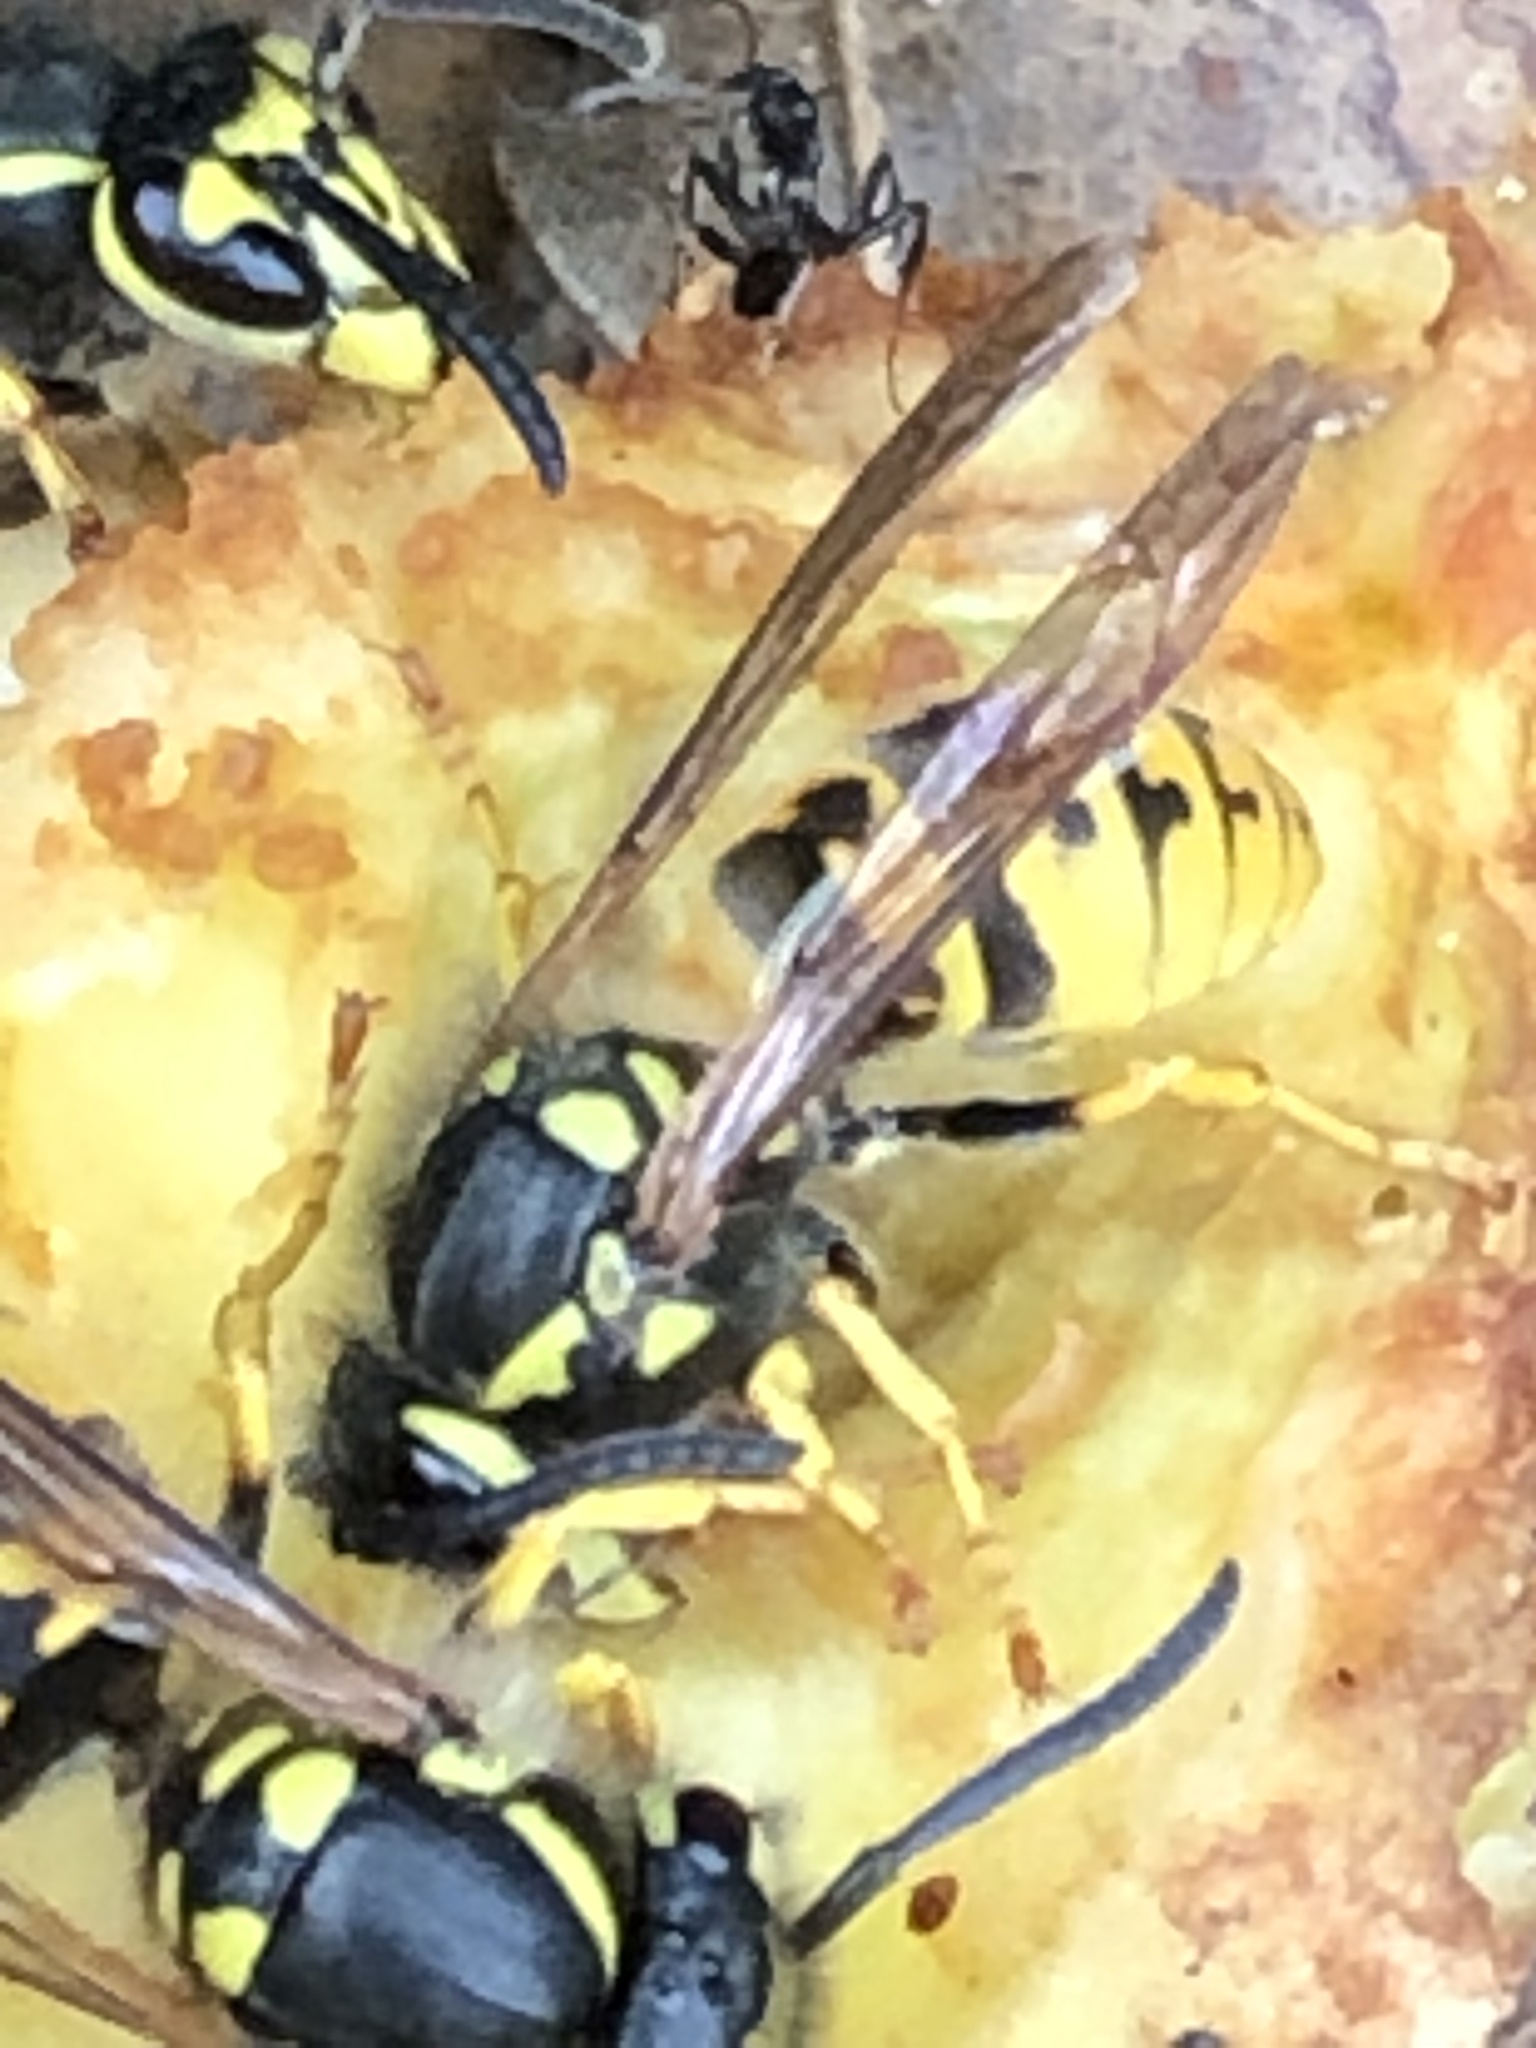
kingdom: Animalia
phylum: Arthropoda
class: Insecta
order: Hymenoptera
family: Vespidae
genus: Vespula
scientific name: Vespula germanica
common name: German wasp
